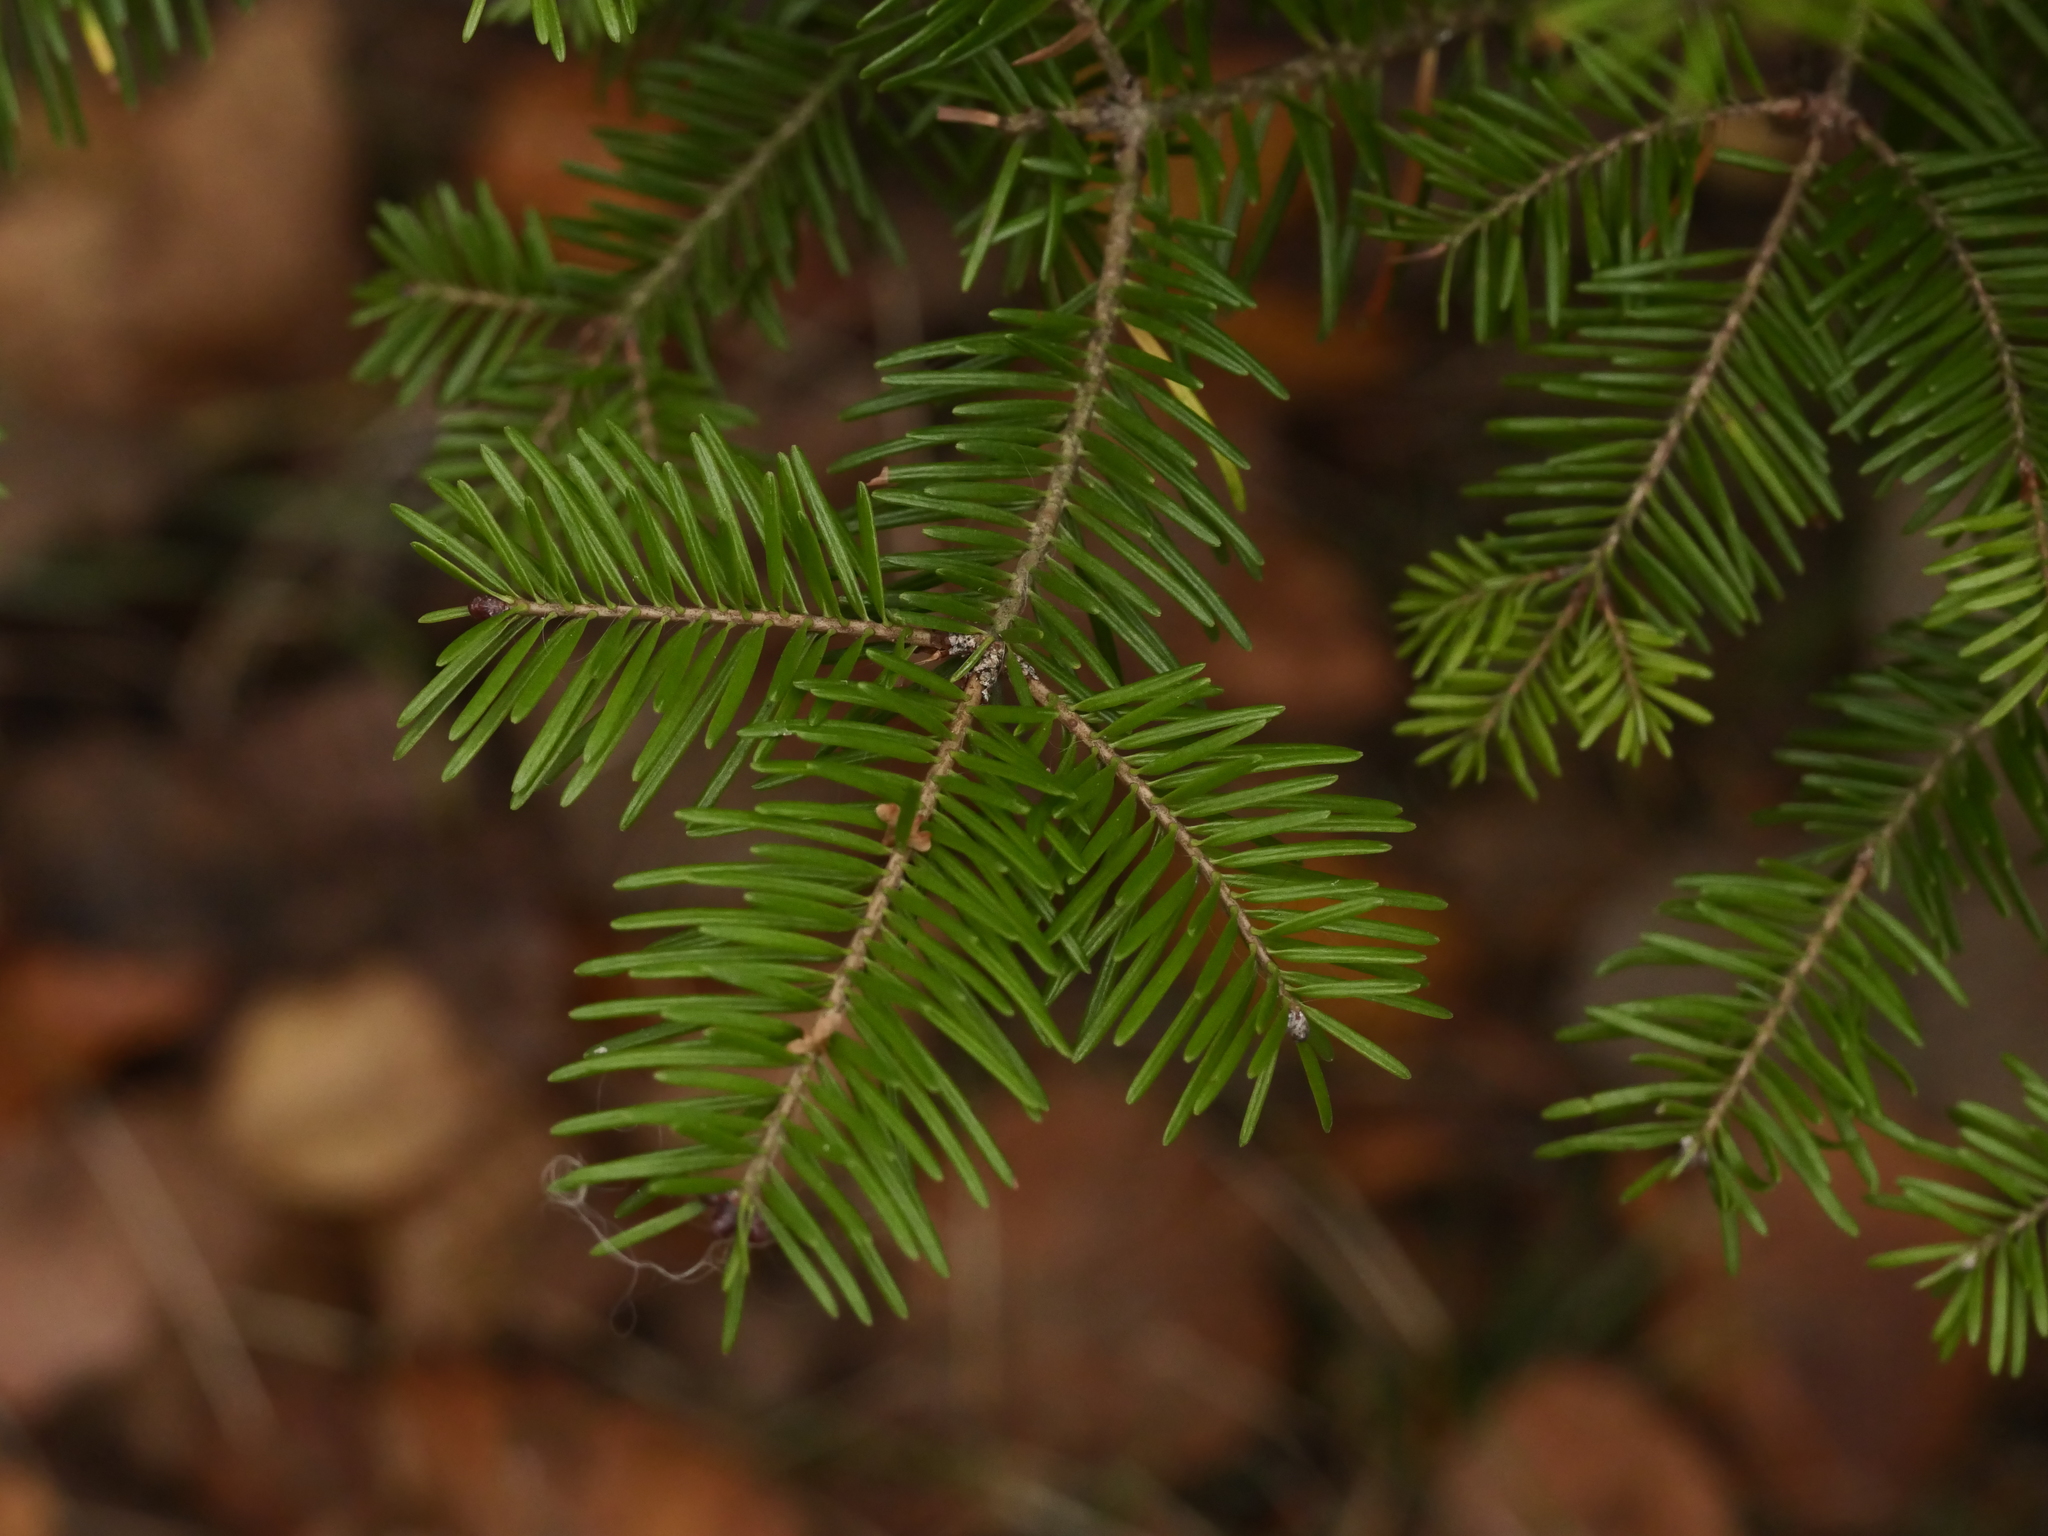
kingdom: Plantae
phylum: Tracheophyta
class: Pinopsida
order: Pinales
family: Pinaceae
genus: Abies
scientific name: Abies balsamea
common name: Balsam fir
